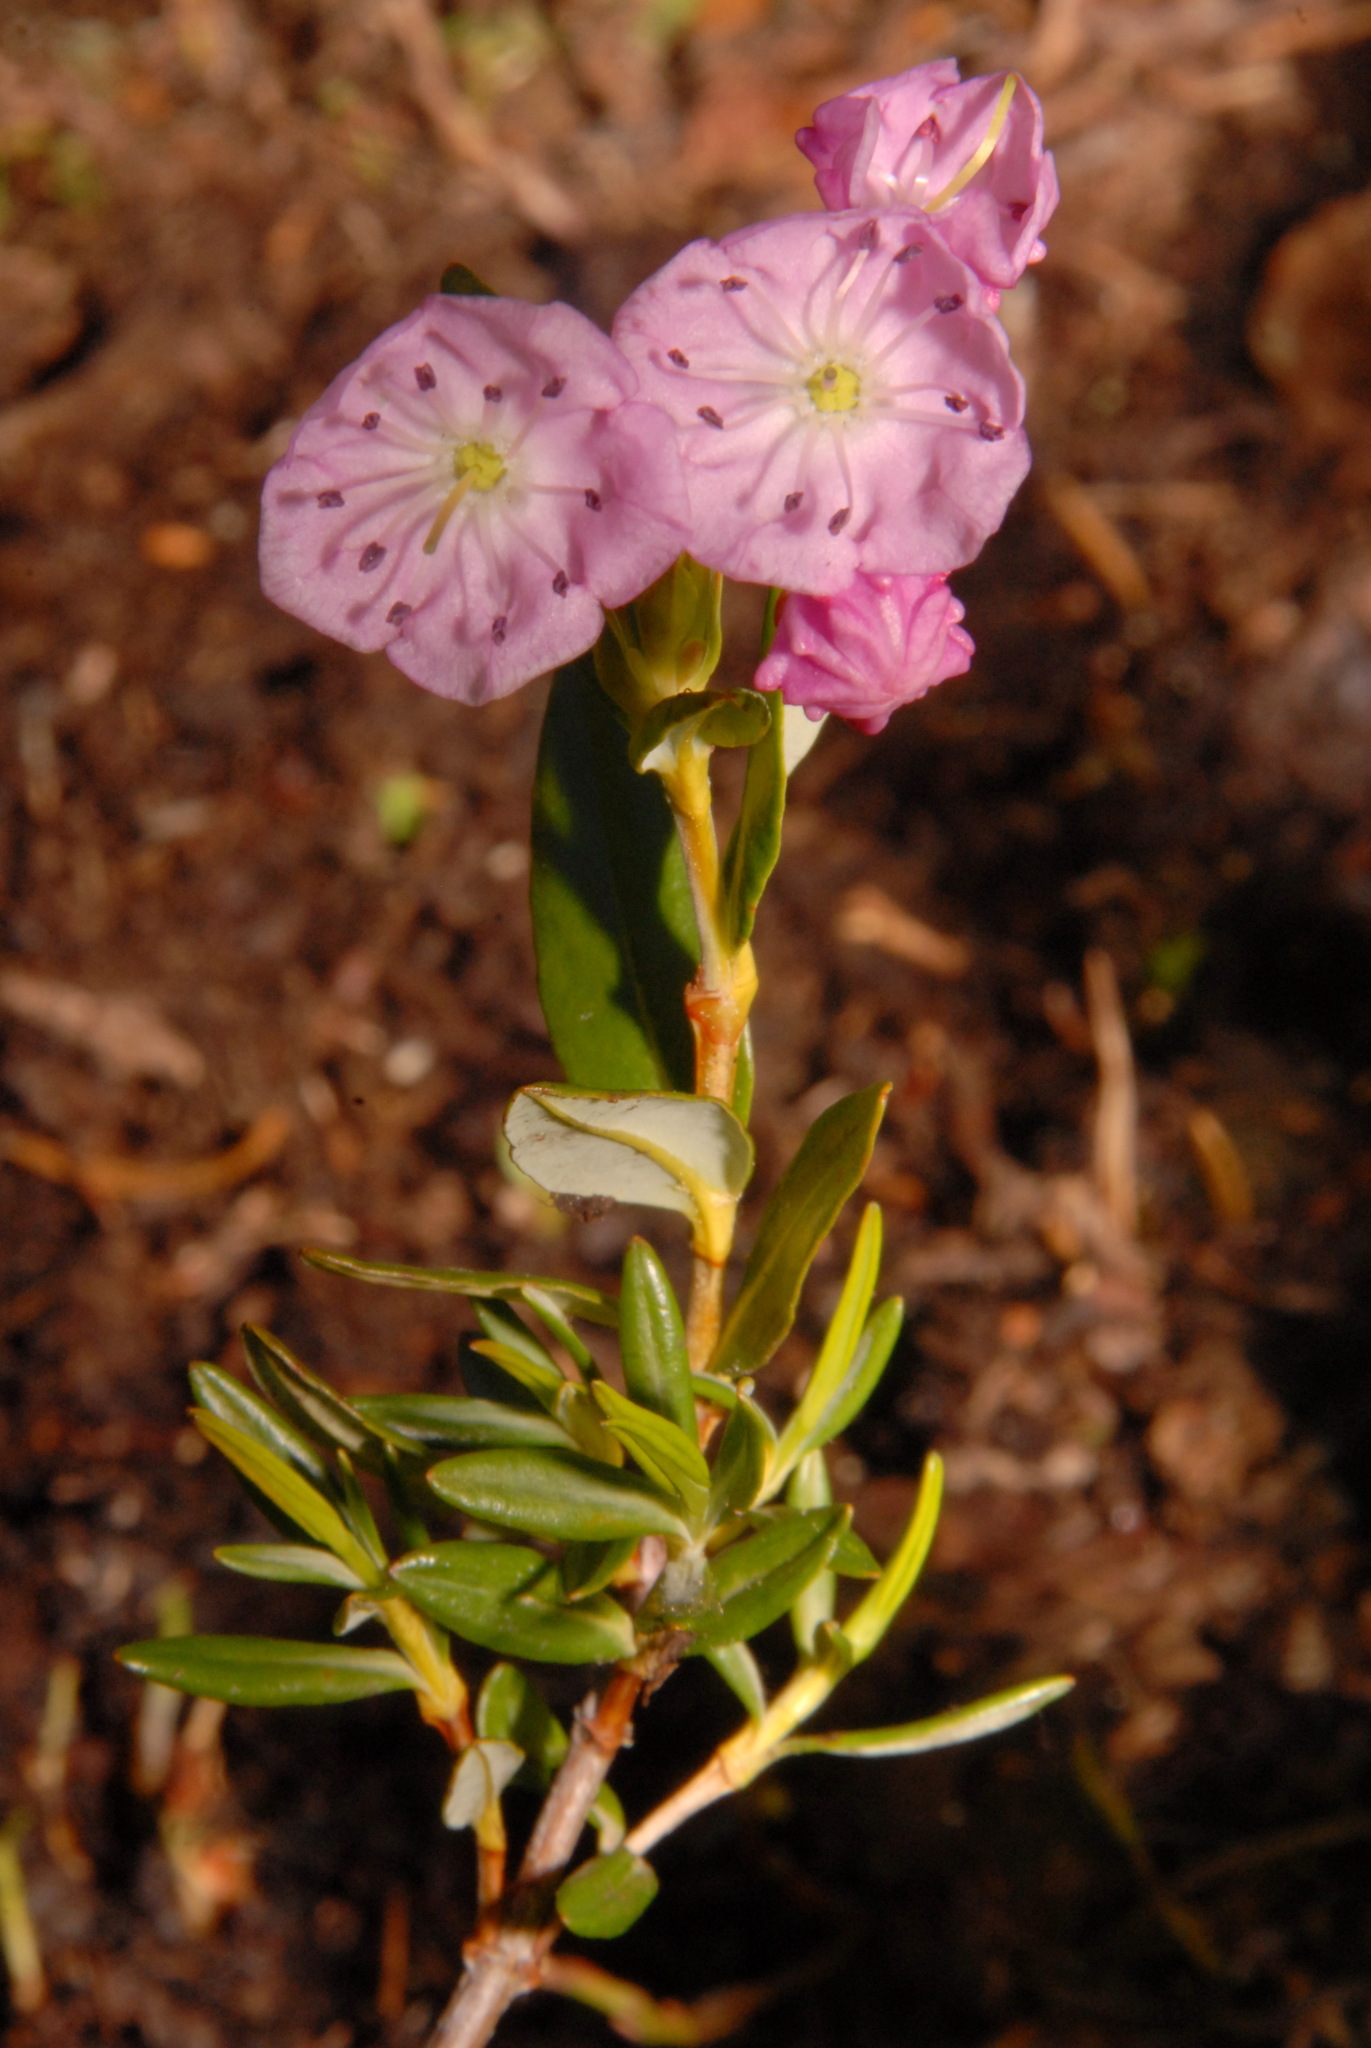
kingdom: Plantae
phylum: Tracheophyta
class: Magnoliopsida
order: Ericales
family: Ericaceae
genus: Kalmia
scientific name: Kalmia microphylla
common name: Alpine bog laurel
